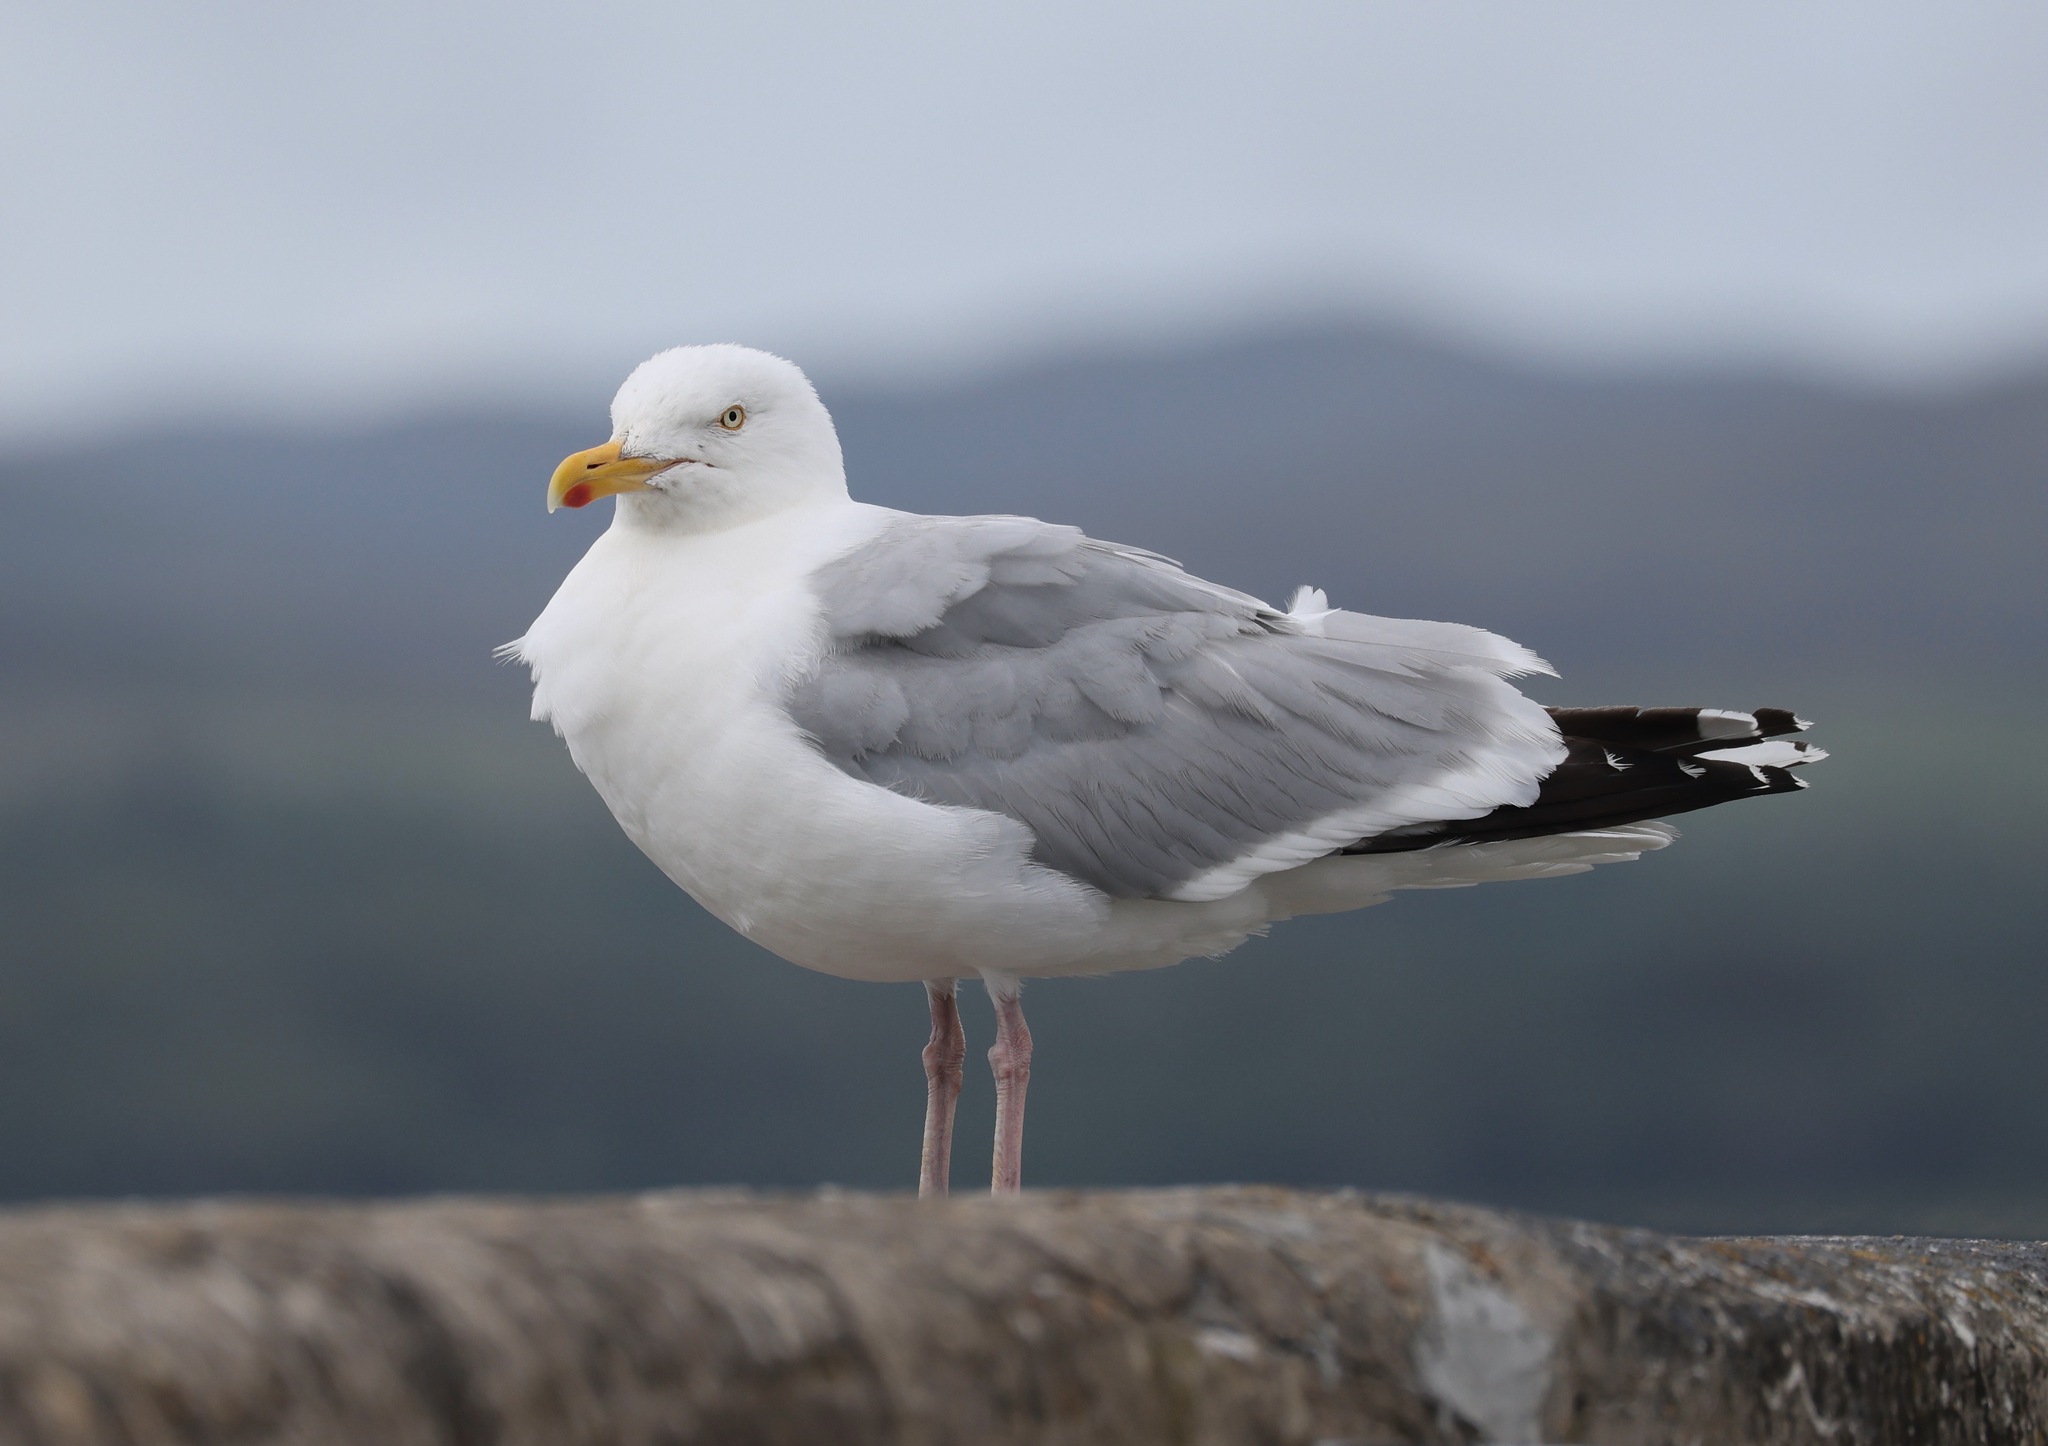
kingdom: Animalia
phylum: Chordata
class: Aves
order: Charadriiformes
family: Laridae
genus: Larus
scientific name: Larus argentatus
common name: Herring gull
